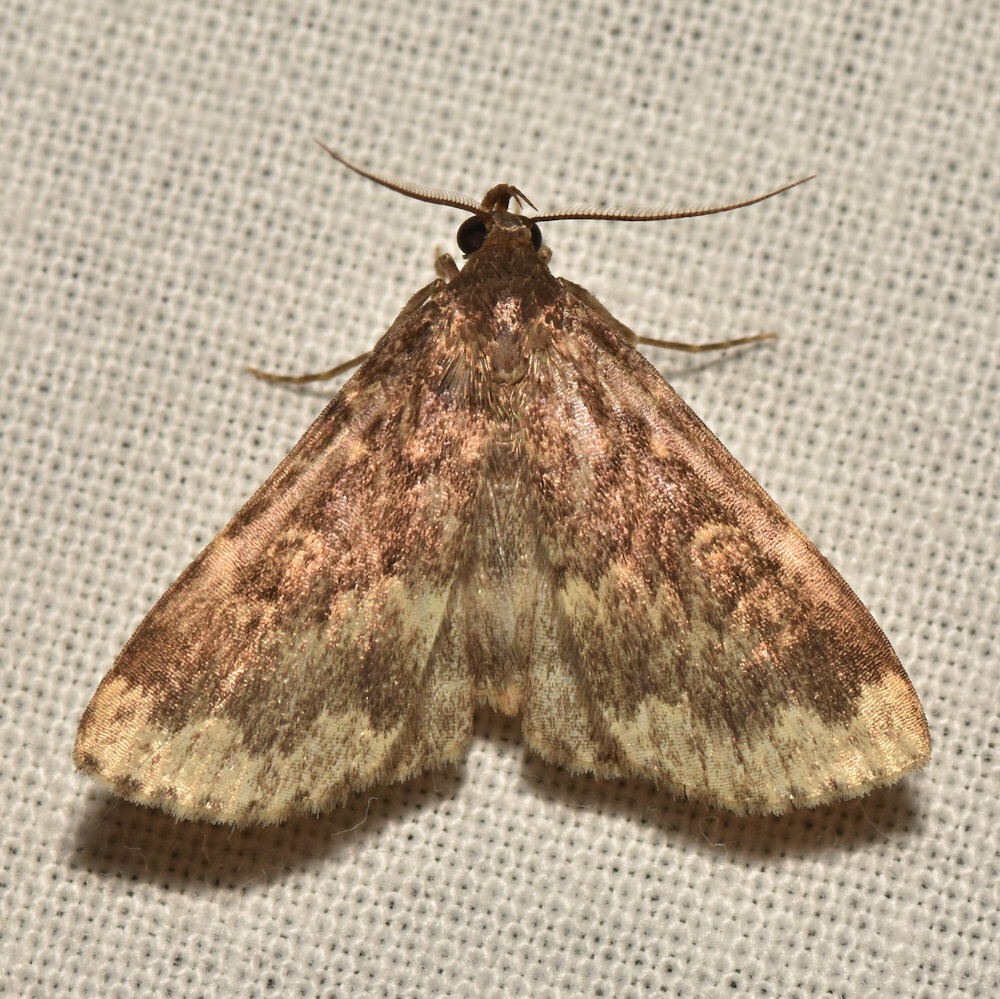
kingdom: Animalia
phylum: Arthropoda
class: Insecta
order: Lepidoptera
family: Erebidae
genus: Idia
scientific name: Idia lubricalis
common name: Twin-striped tabby
